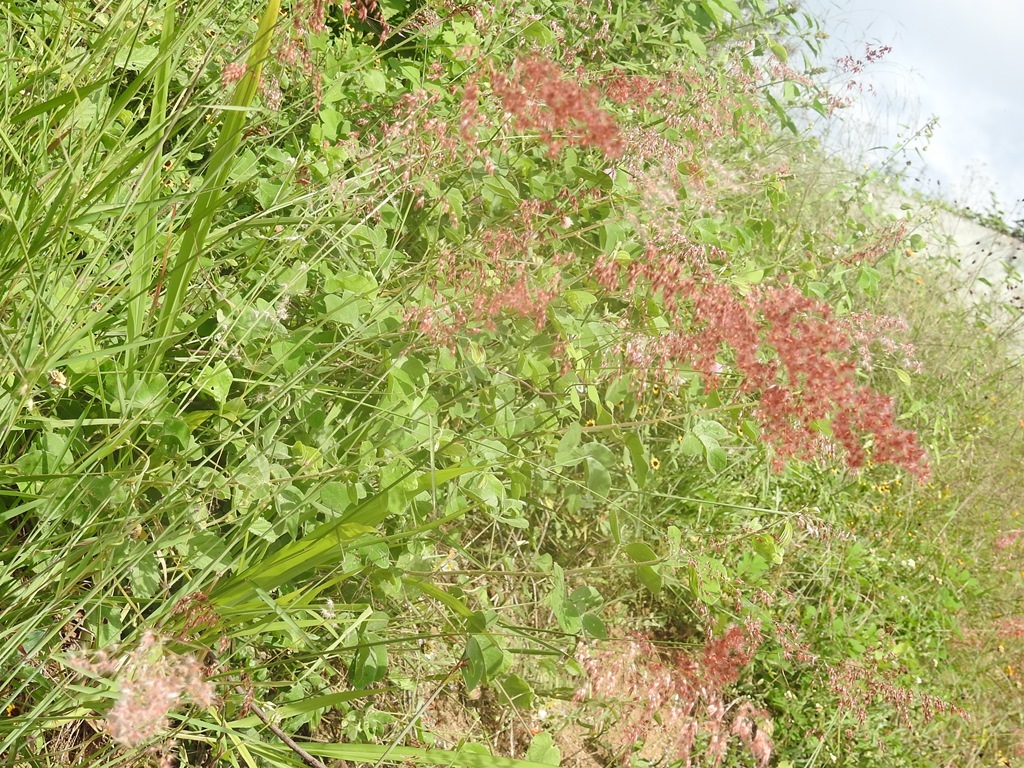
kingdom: Plantae
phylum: Tracheophyta
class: Liliopsida
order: Poales
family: Poaceae
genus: Melinis
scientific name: Melinis repens
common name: Rose natal grass
